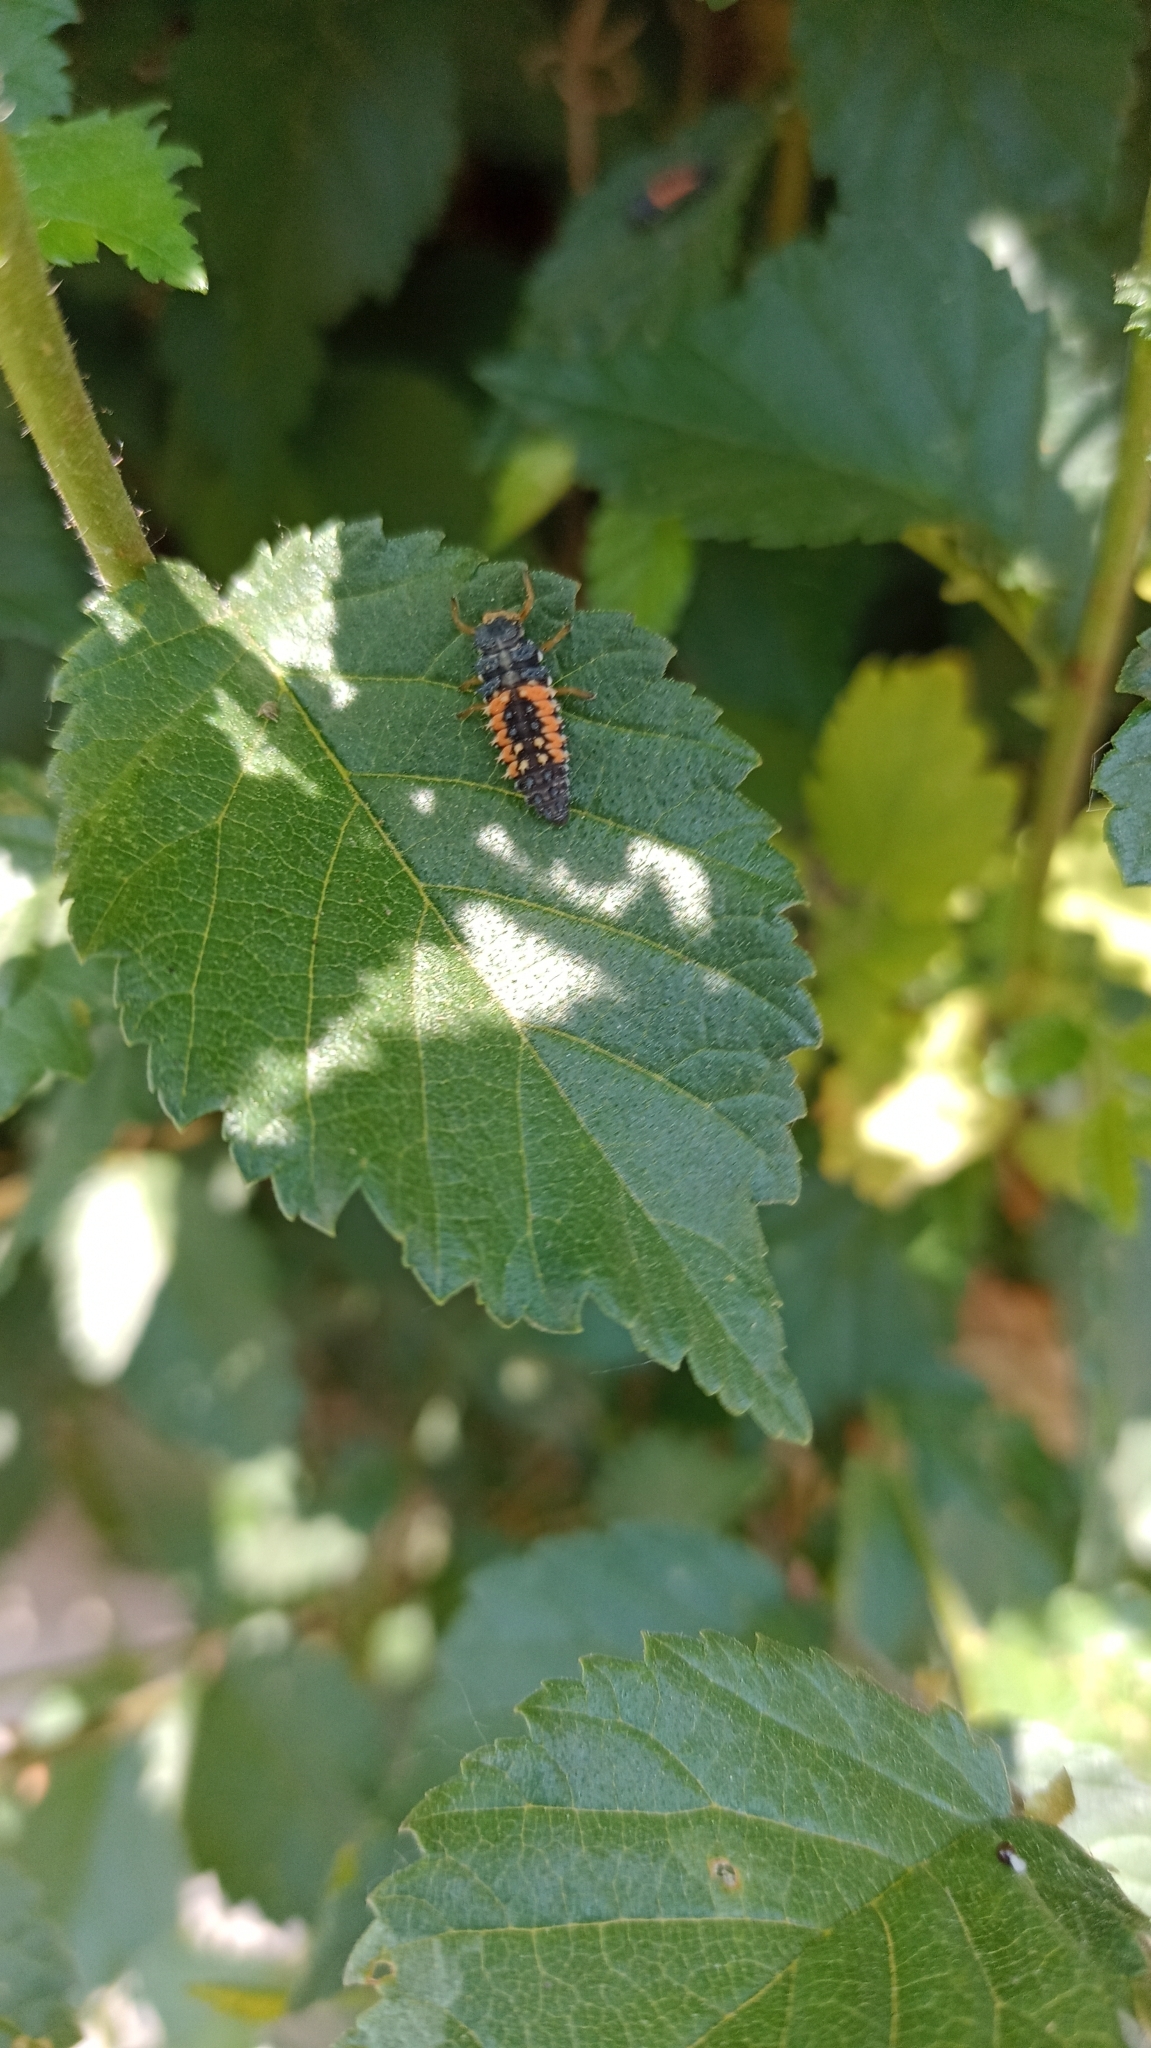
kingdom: Animalia
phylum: Arthropoda
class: Insecta
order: Coleoptera
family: Coccinellidae
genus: Harmonia
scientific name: Harmonia axyridis
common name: Harlequin ladybird
